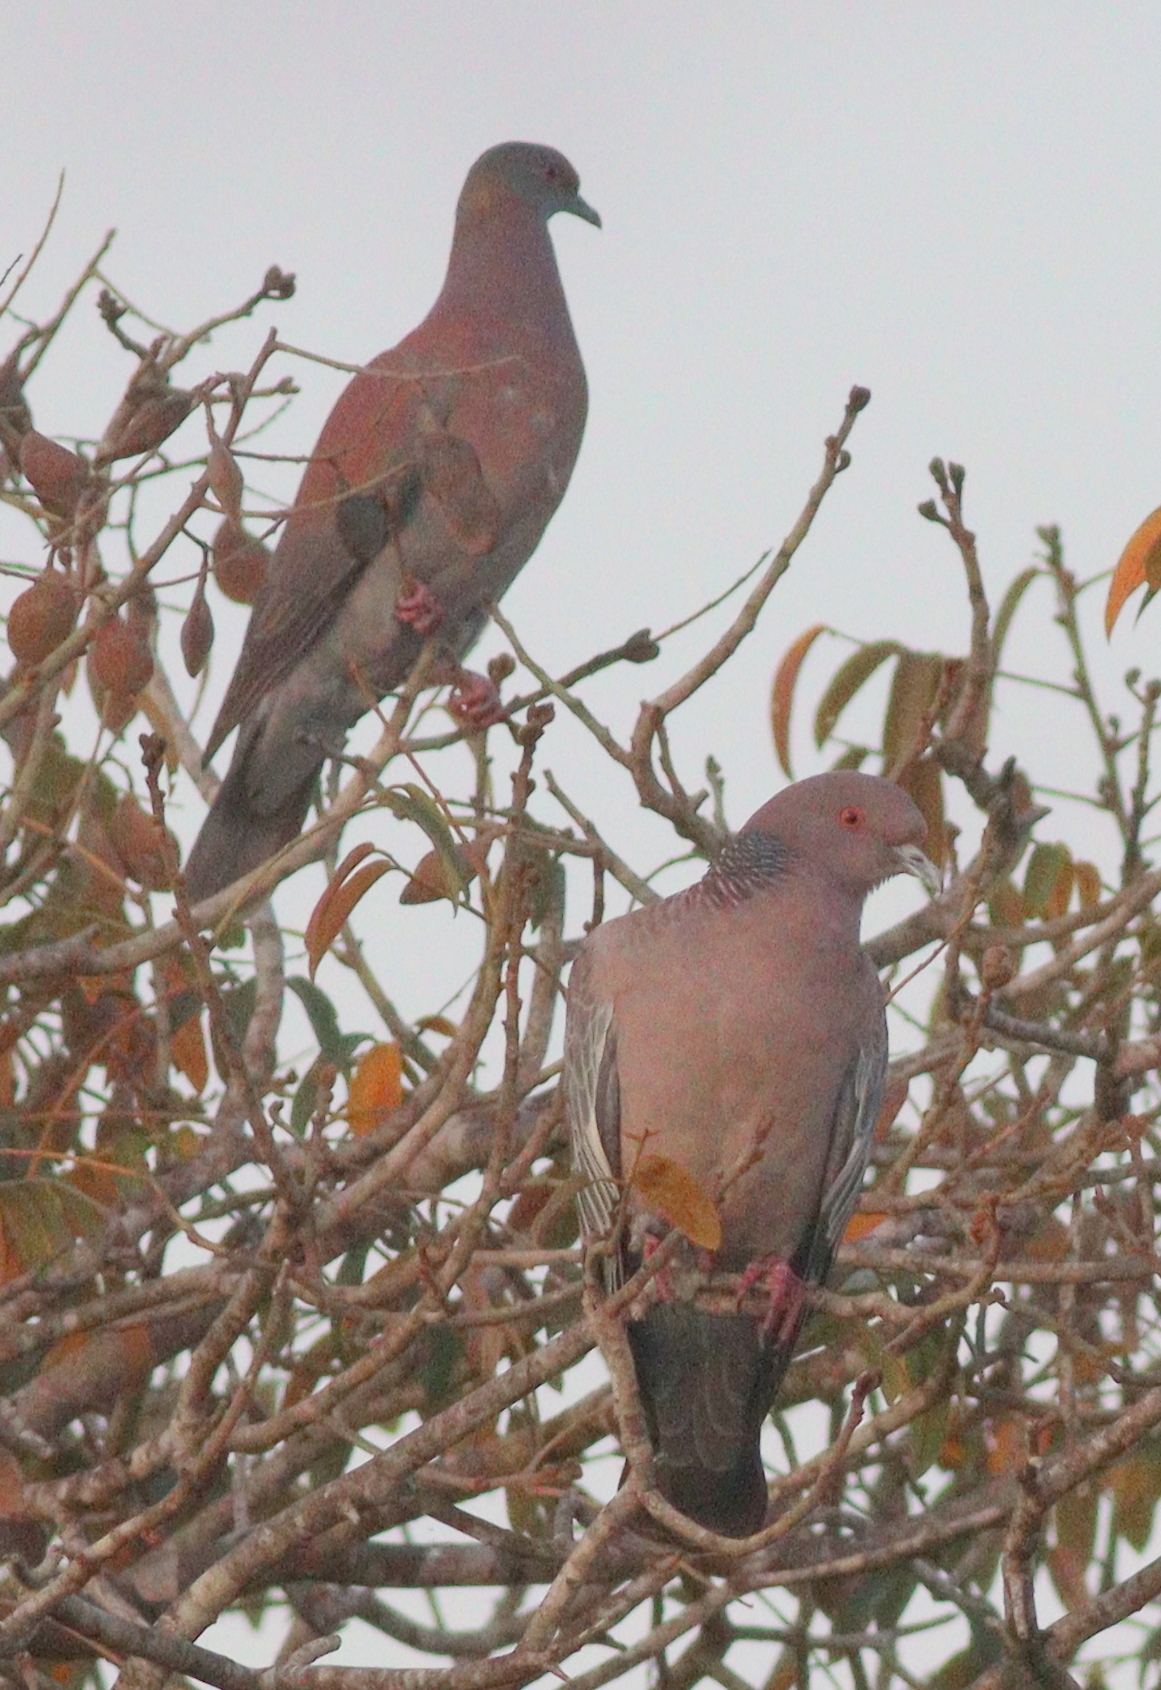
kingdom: Animalia
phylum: Chordata
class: Aves
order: Columbiformes
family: Columbidae
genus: Patagioenas
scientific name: Patagioenas picazuro
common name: Picazuro pigeon
